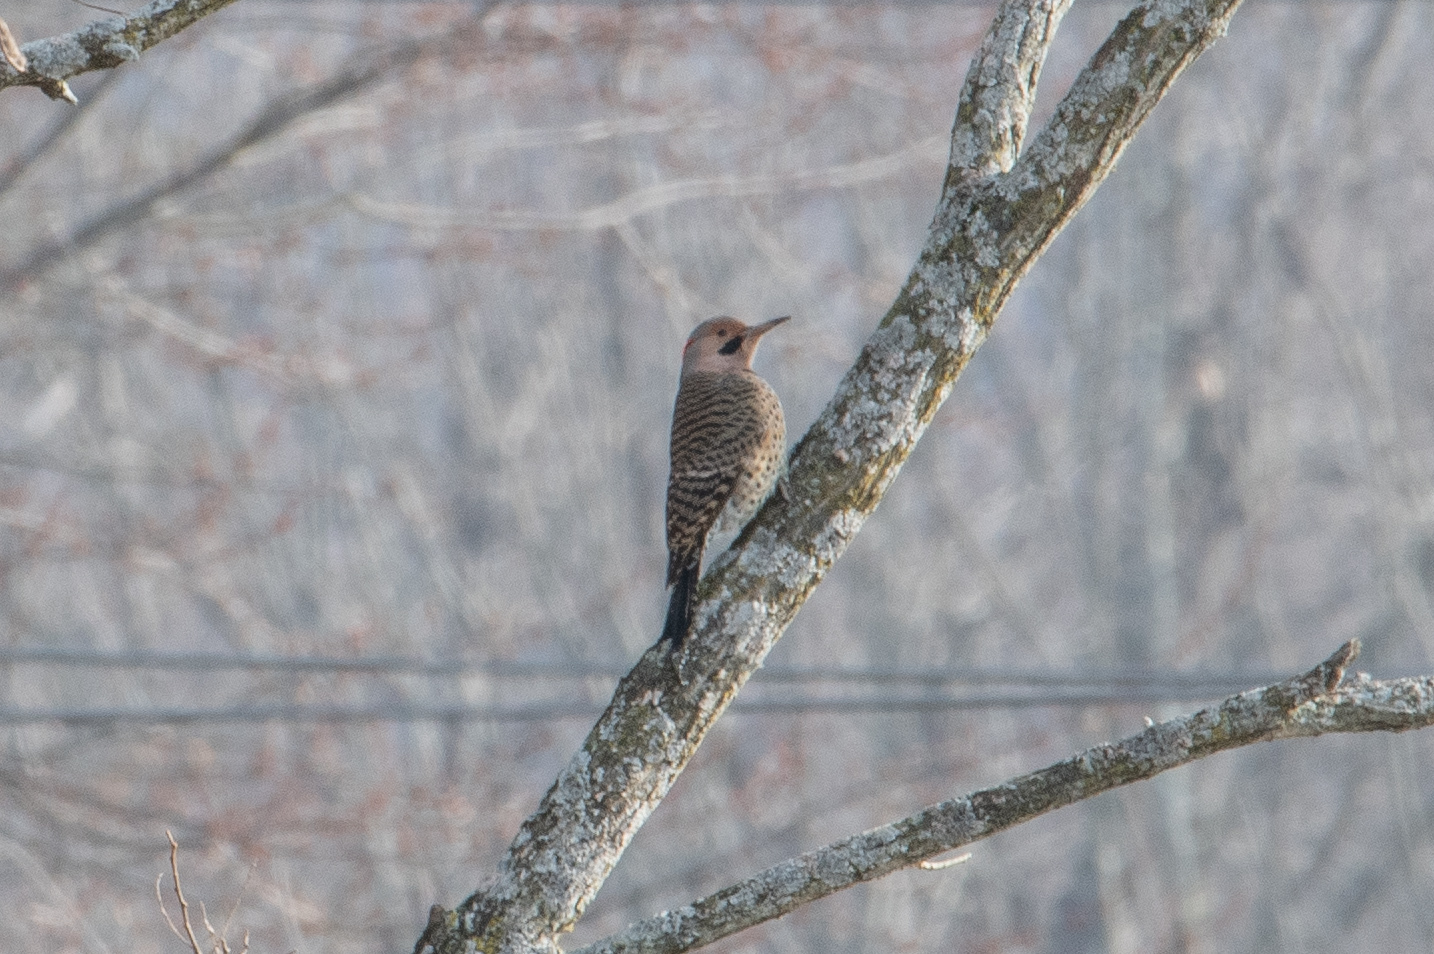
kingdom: Animalia
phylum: Chordata
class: Aves
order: Piciformes
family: Picidae
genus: Colaptes
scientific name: Colaptes auratus
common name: Northern flicker
